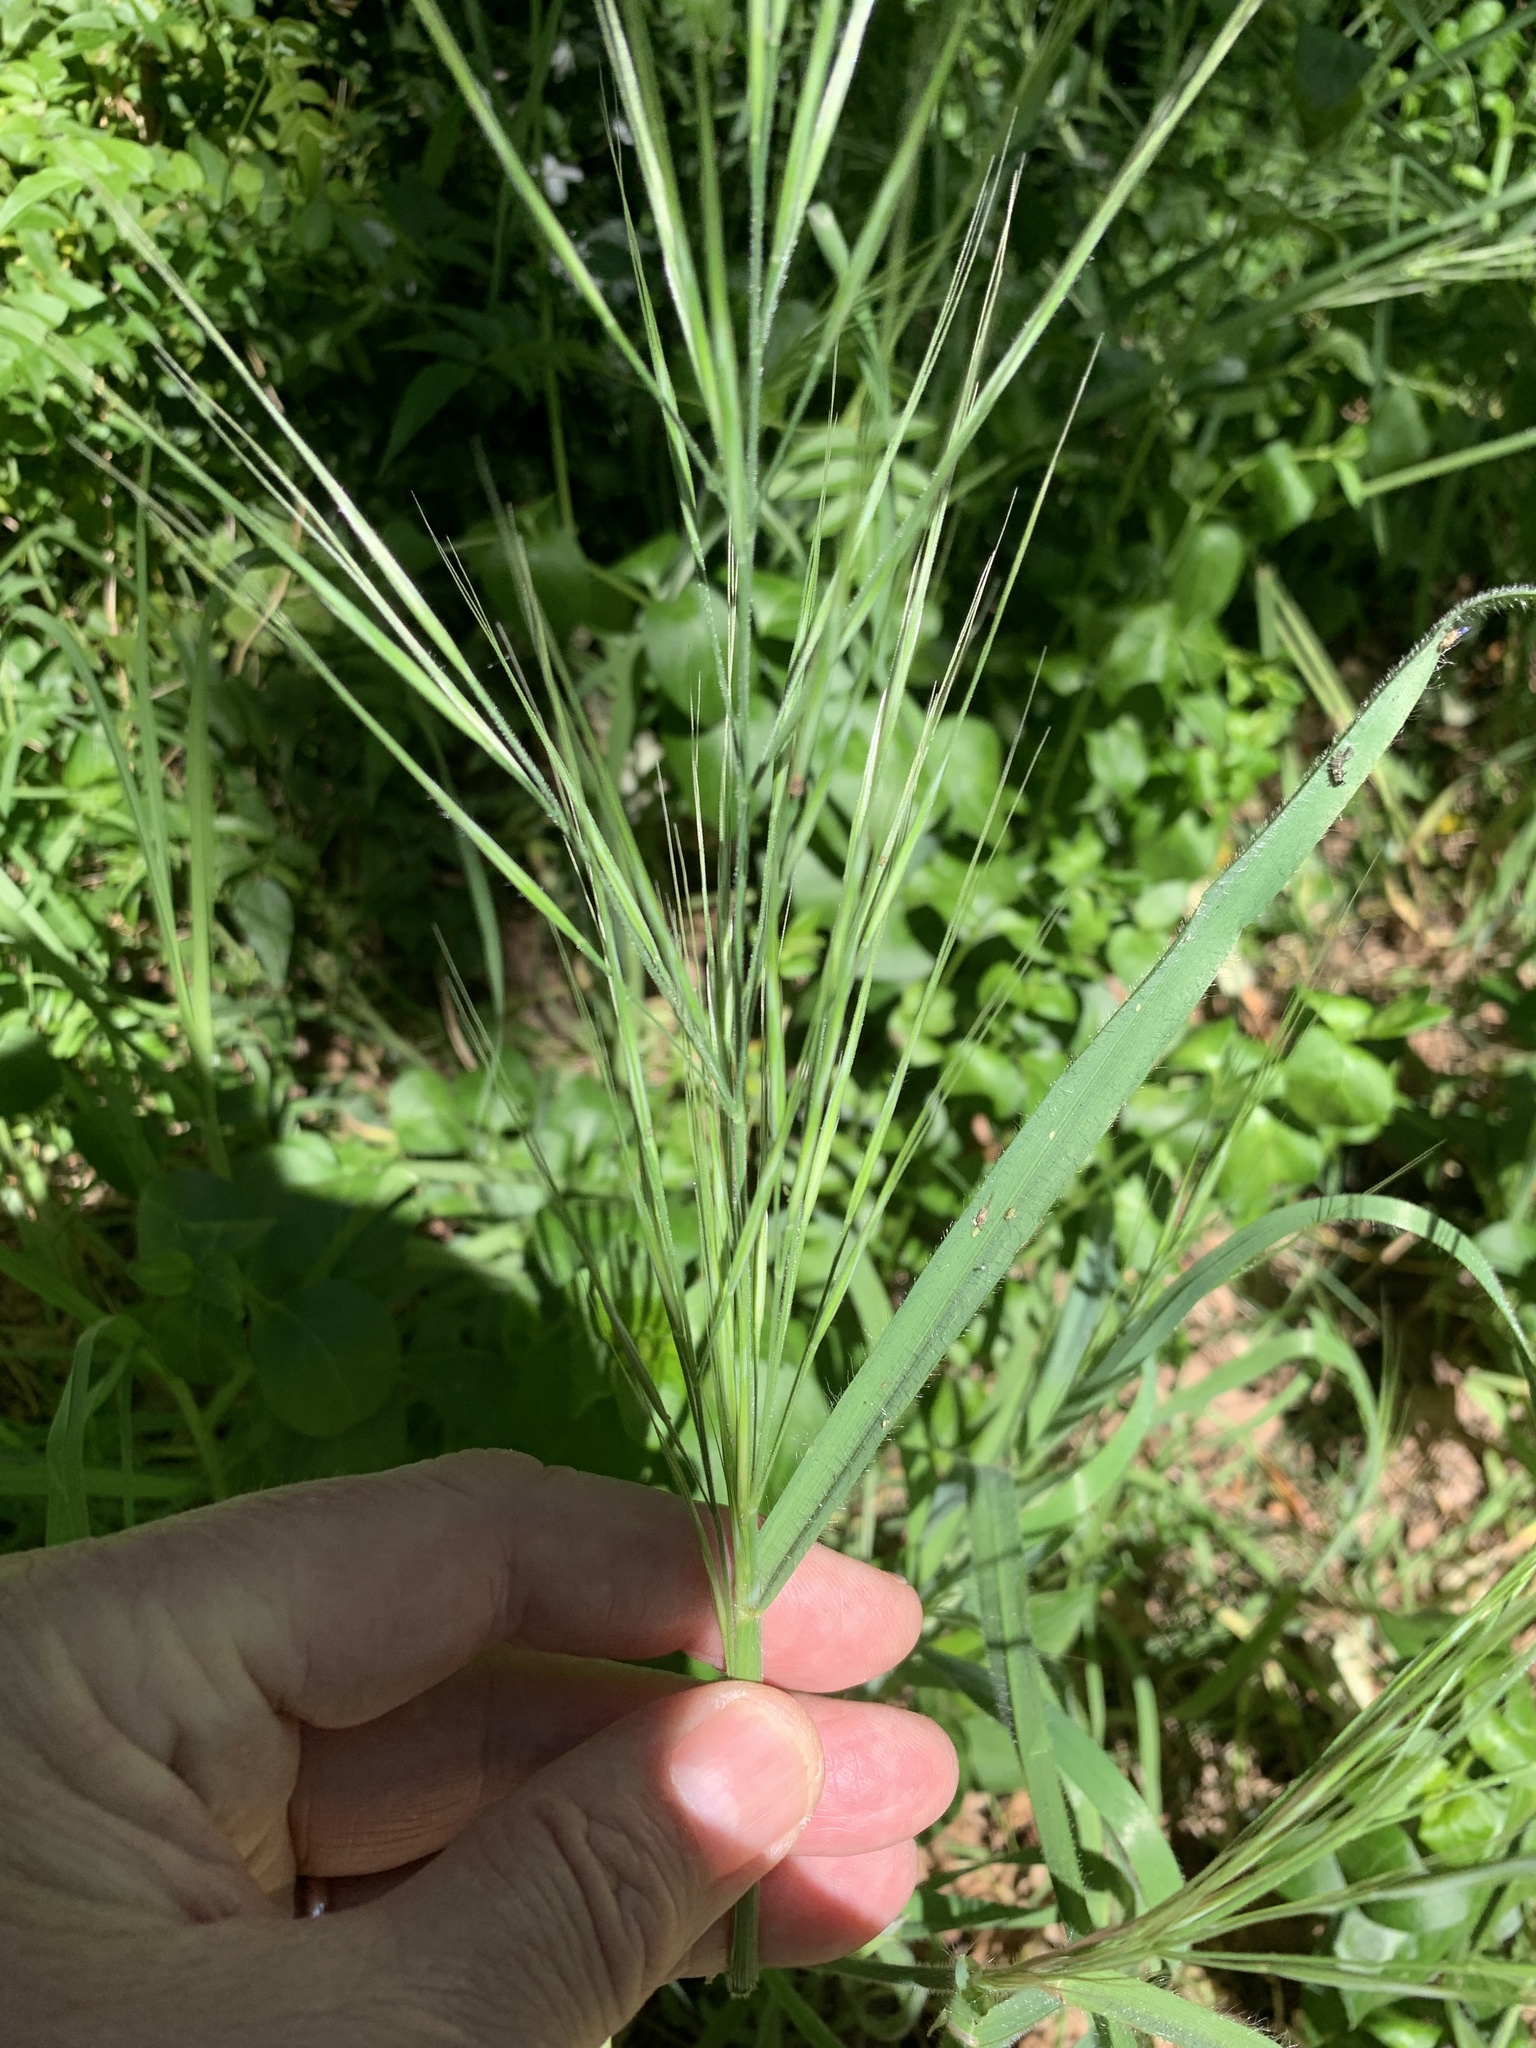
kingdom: Plantae
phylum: Tracheophyta
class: Liliopsida
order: Poales
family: Poaceae
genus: Bromus
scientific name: Bromus diandrus
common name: Ripgut brome
